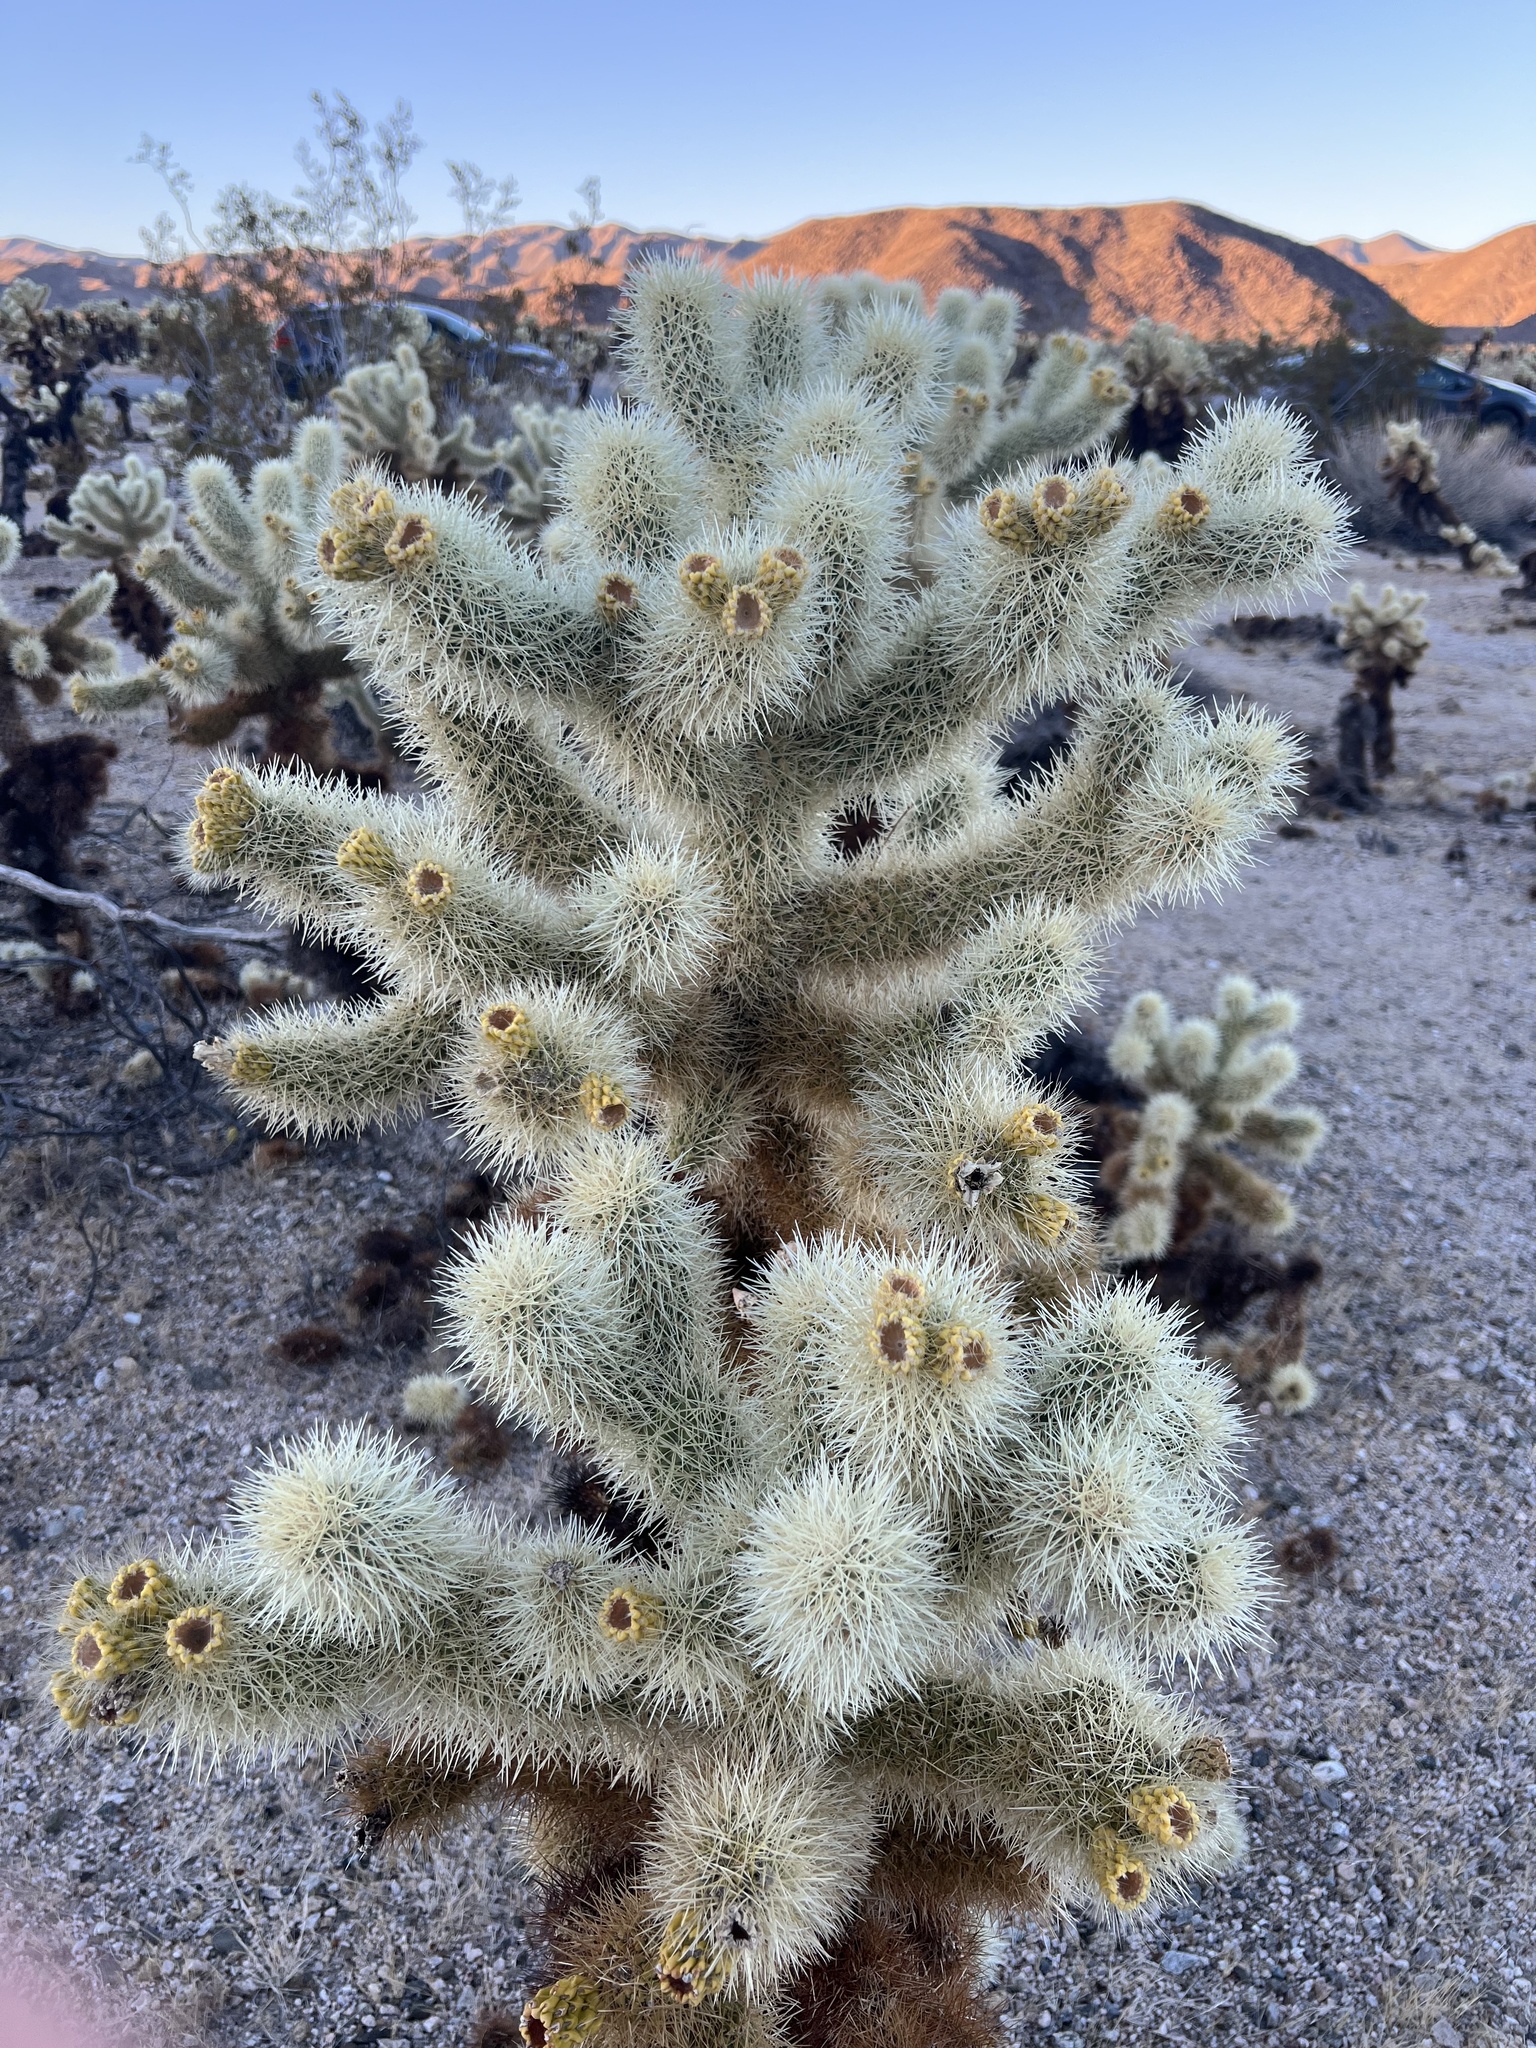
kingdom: Plantae
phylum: Tracheophyta
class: Magnoliopsida
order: Caryophyllales
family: Cactaceae
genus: Cylindropuntia
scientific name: Cylindropuntia fosbergii
